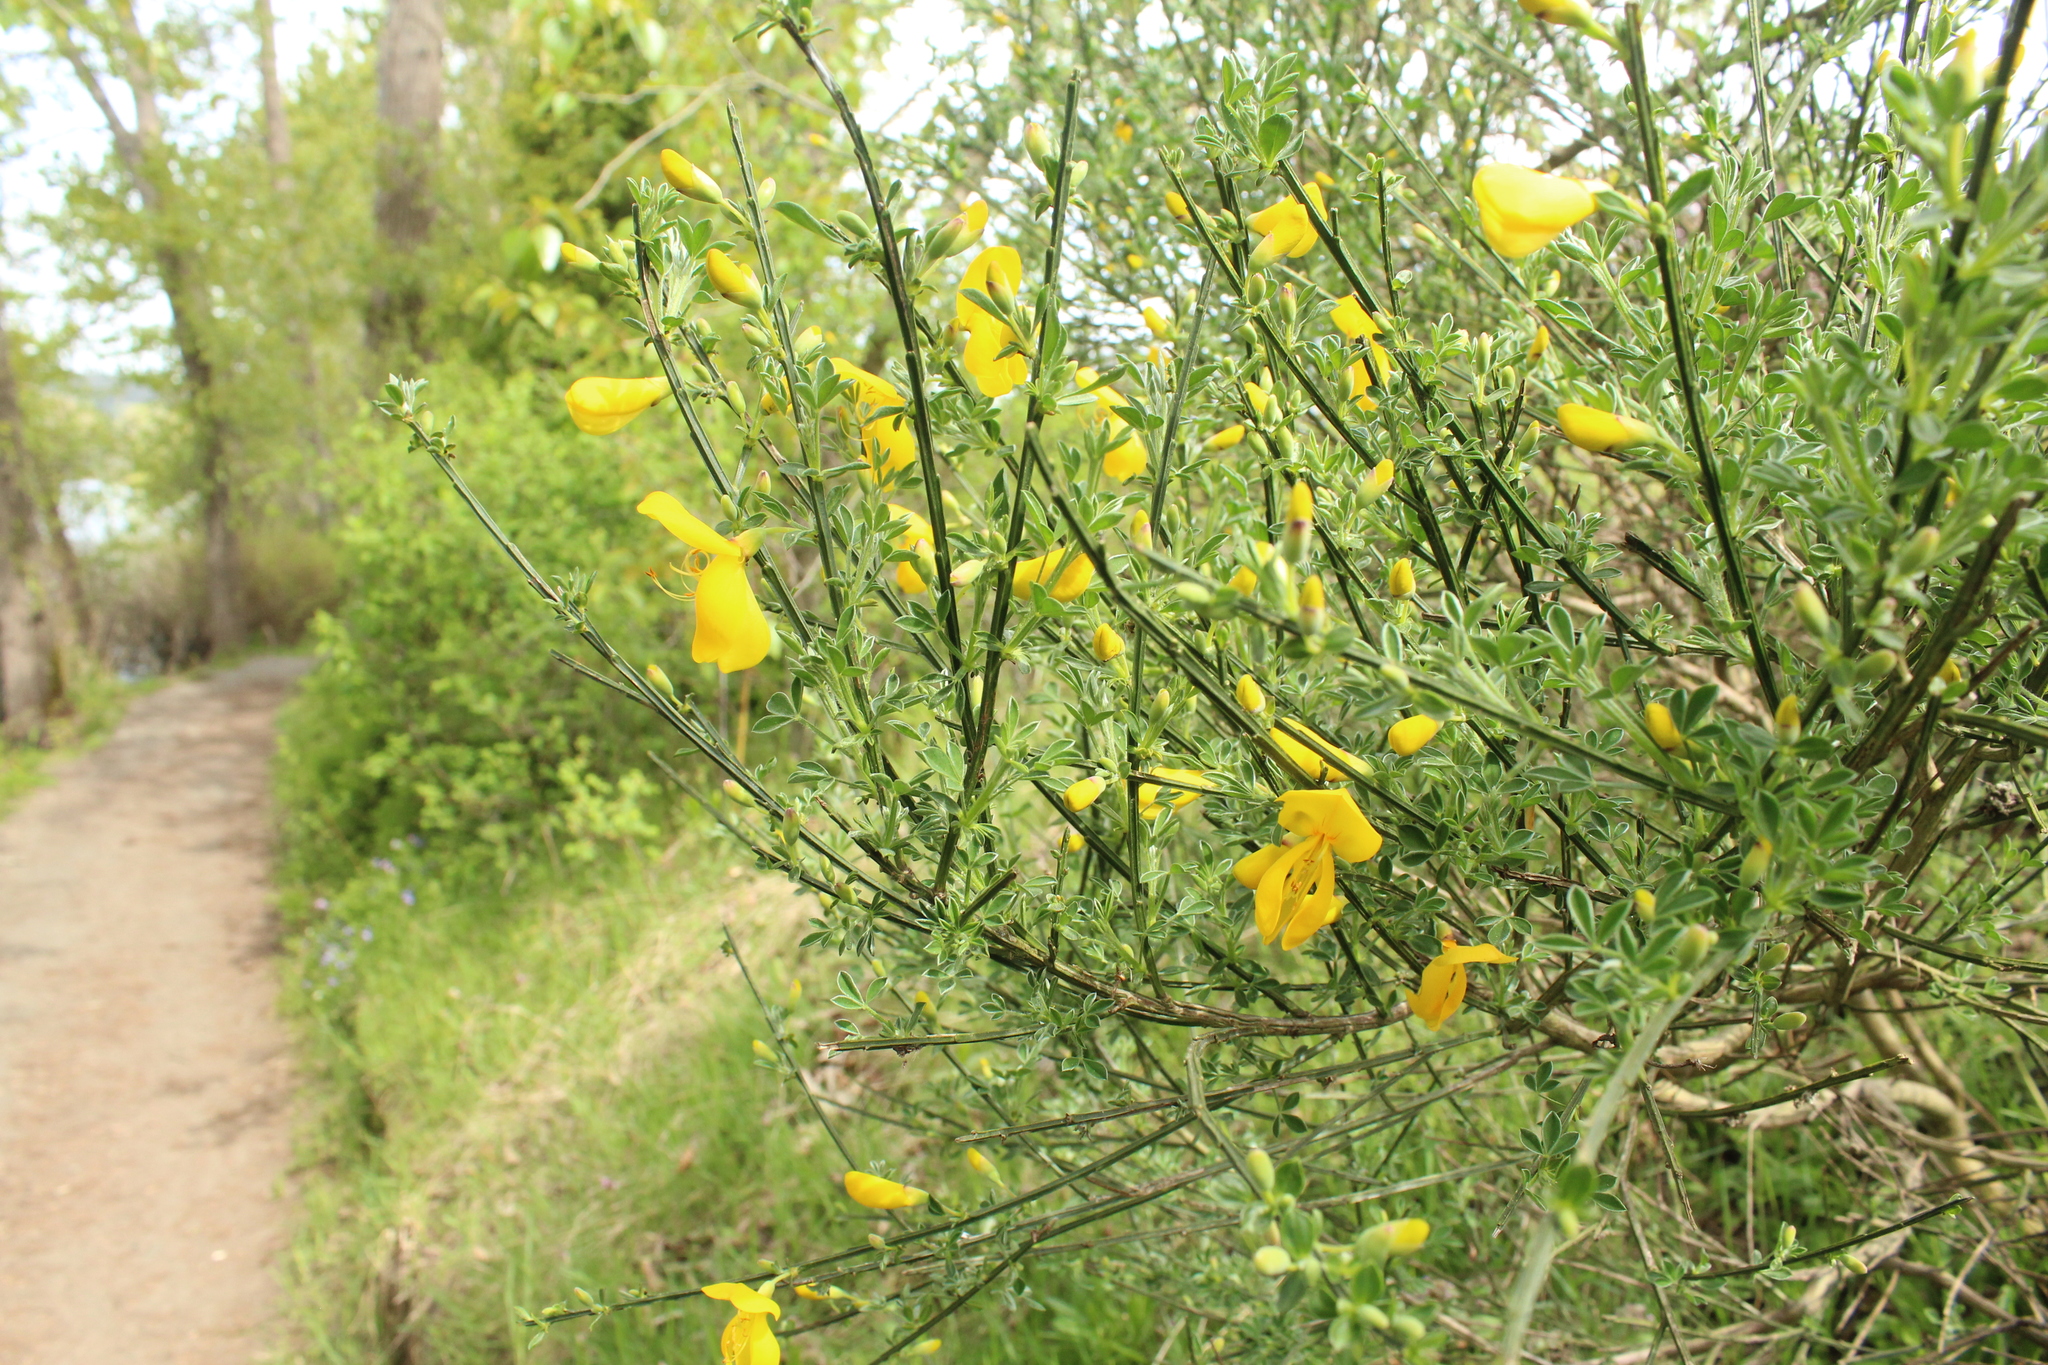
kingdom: Plantae
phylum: Tracheophyta
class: Magnoliopsida
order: Fabales
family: Fabaceae
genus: Cytisus
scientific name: Cytisus scoparius
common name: Scotch broom
